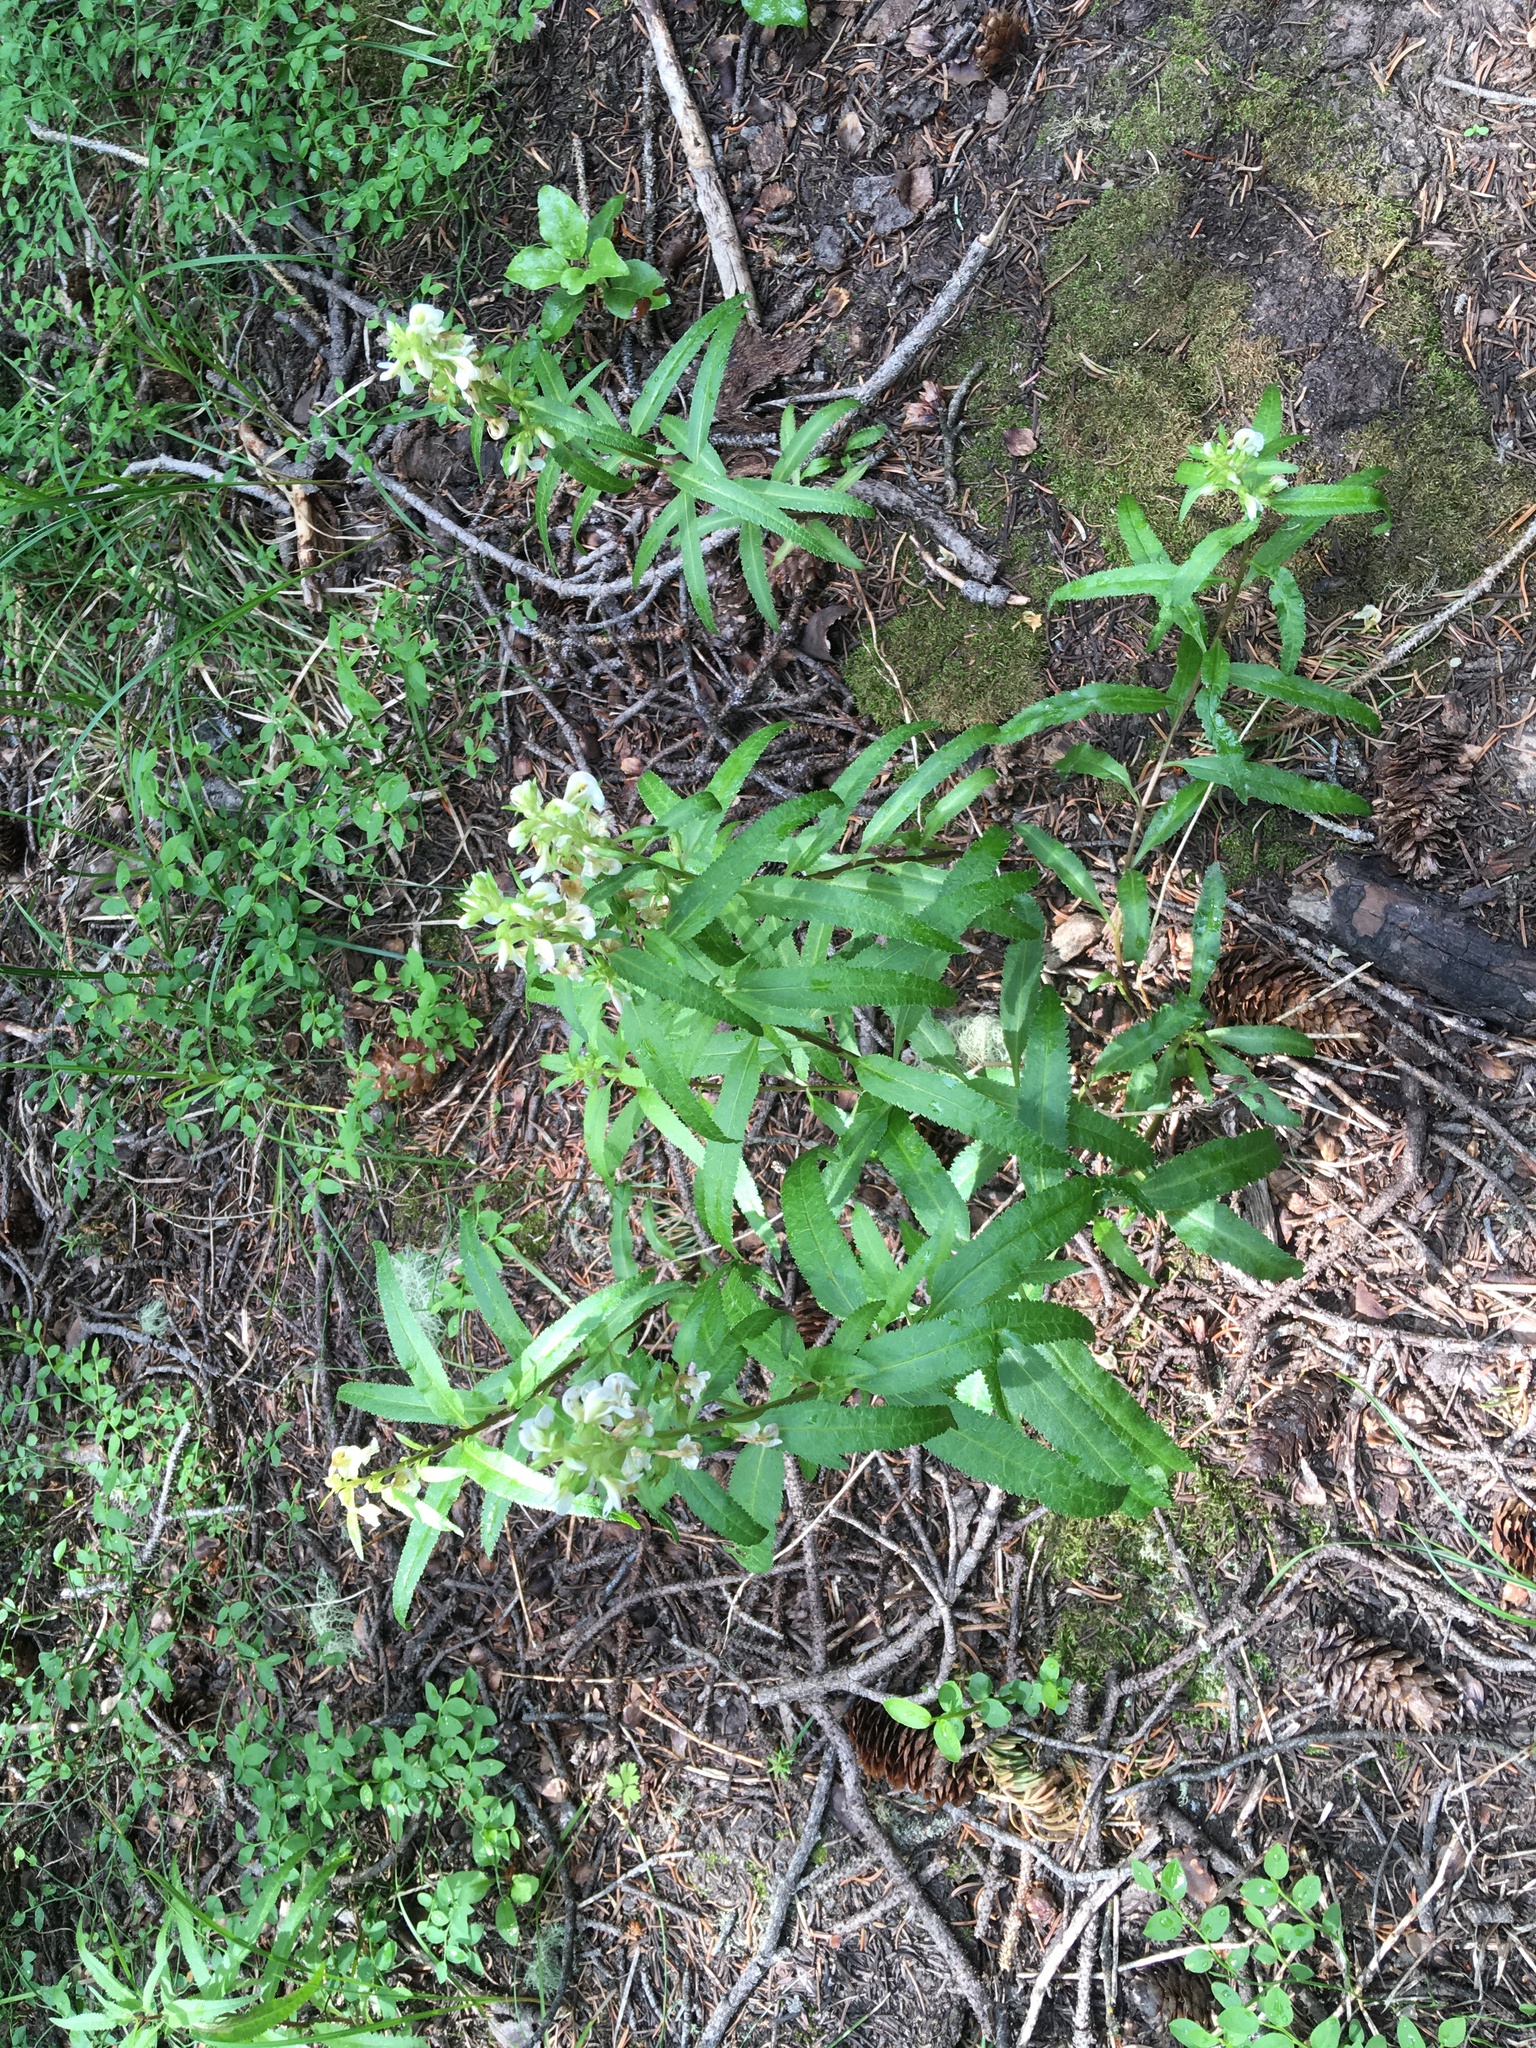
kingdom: Plantae
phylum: Tracheophyta
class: Magnoliopsida
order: Lamiales
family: Orobanchaceae
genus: Pedicularis
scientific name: Pedicularis racemosa
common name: Leafy lousewort
